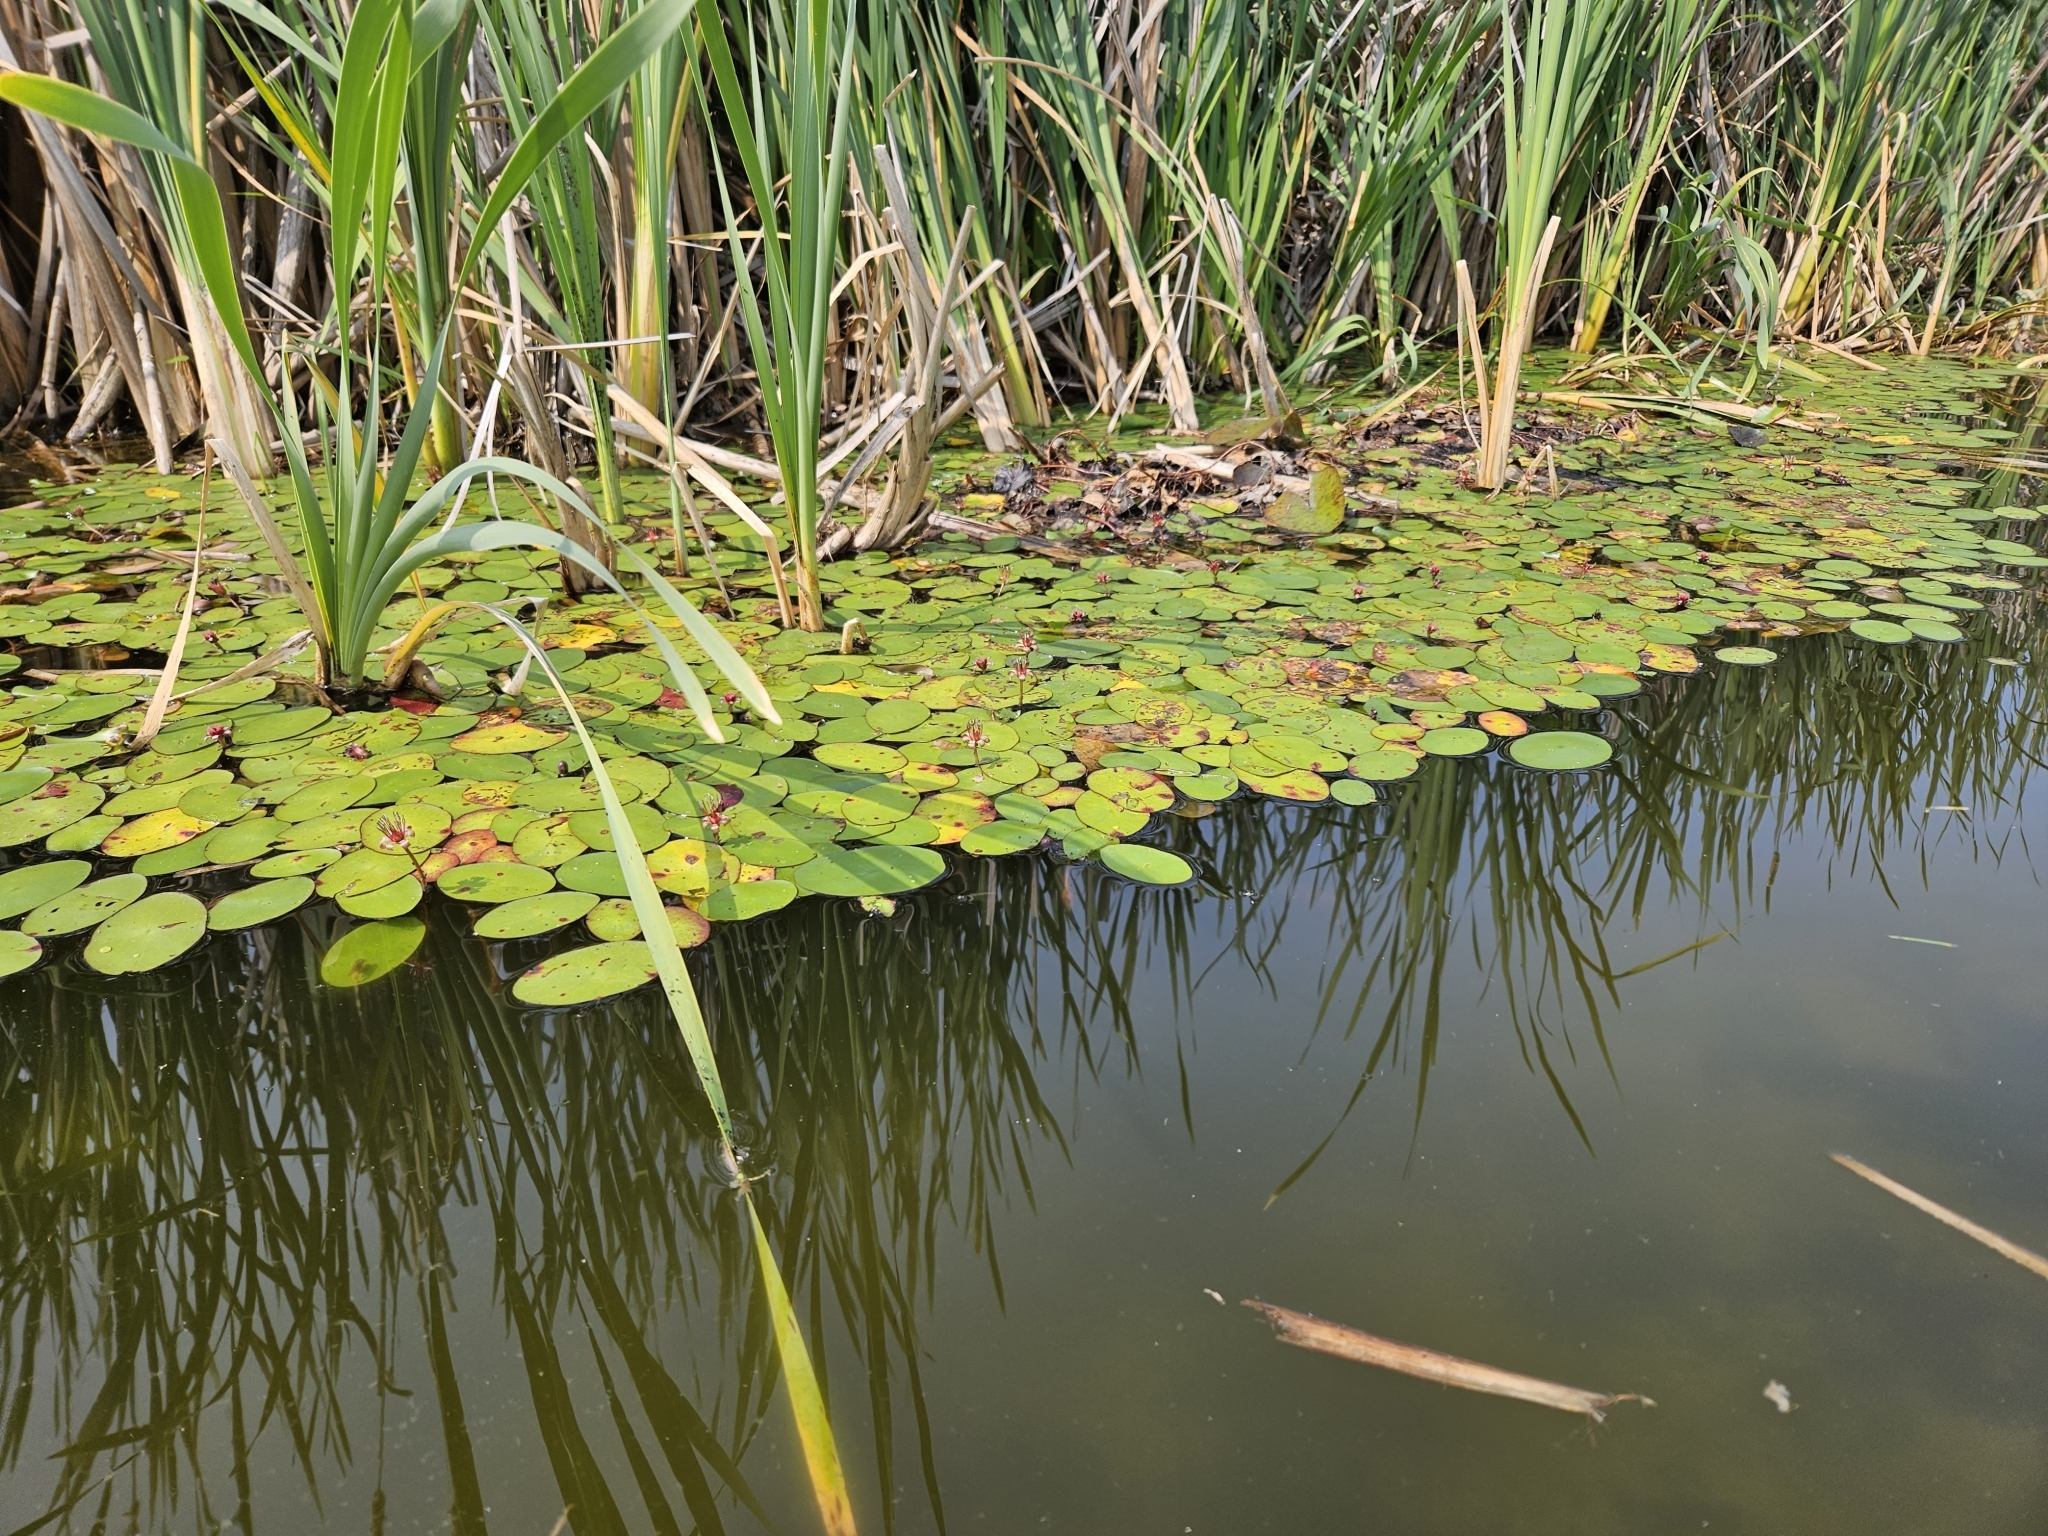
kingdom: Plantae
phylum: Tracheophyta
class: Magnoliopsida
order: Nymphaeales
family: Cabombaceae
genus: Brasenia
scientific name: Brasenia schreberi
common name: Water-shield
